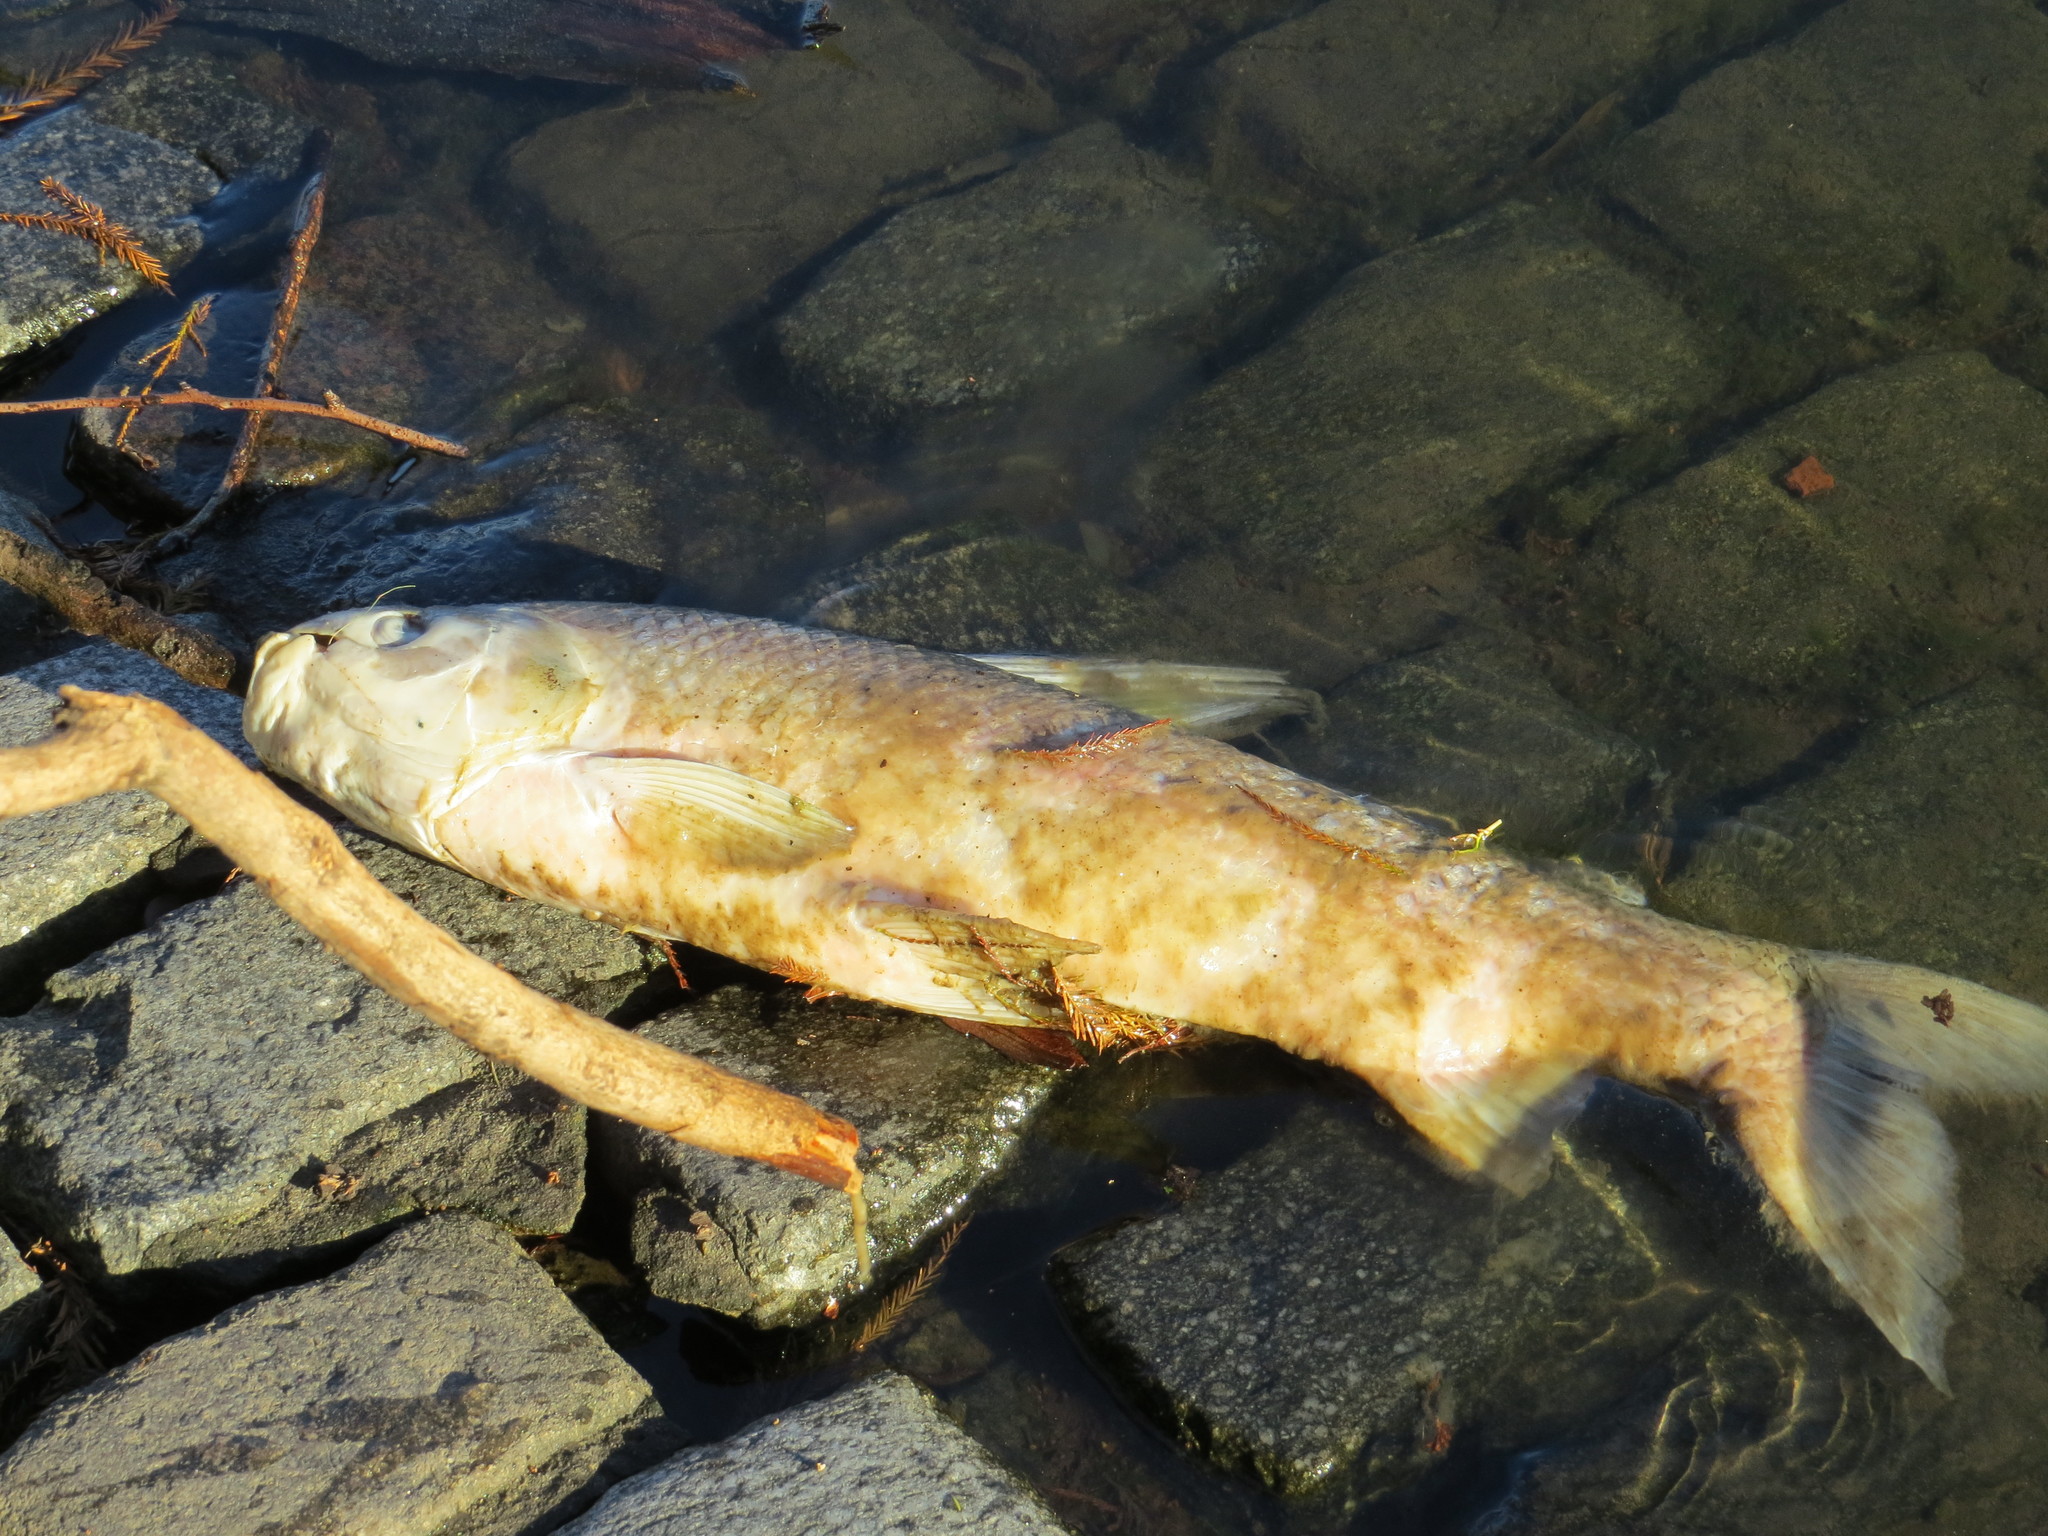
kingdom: Animalia
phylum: Chordata
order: Characiformes
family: Prochilodontidae
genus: Prochilodus
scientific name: Prochilodus lineatus
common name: Curimbata
